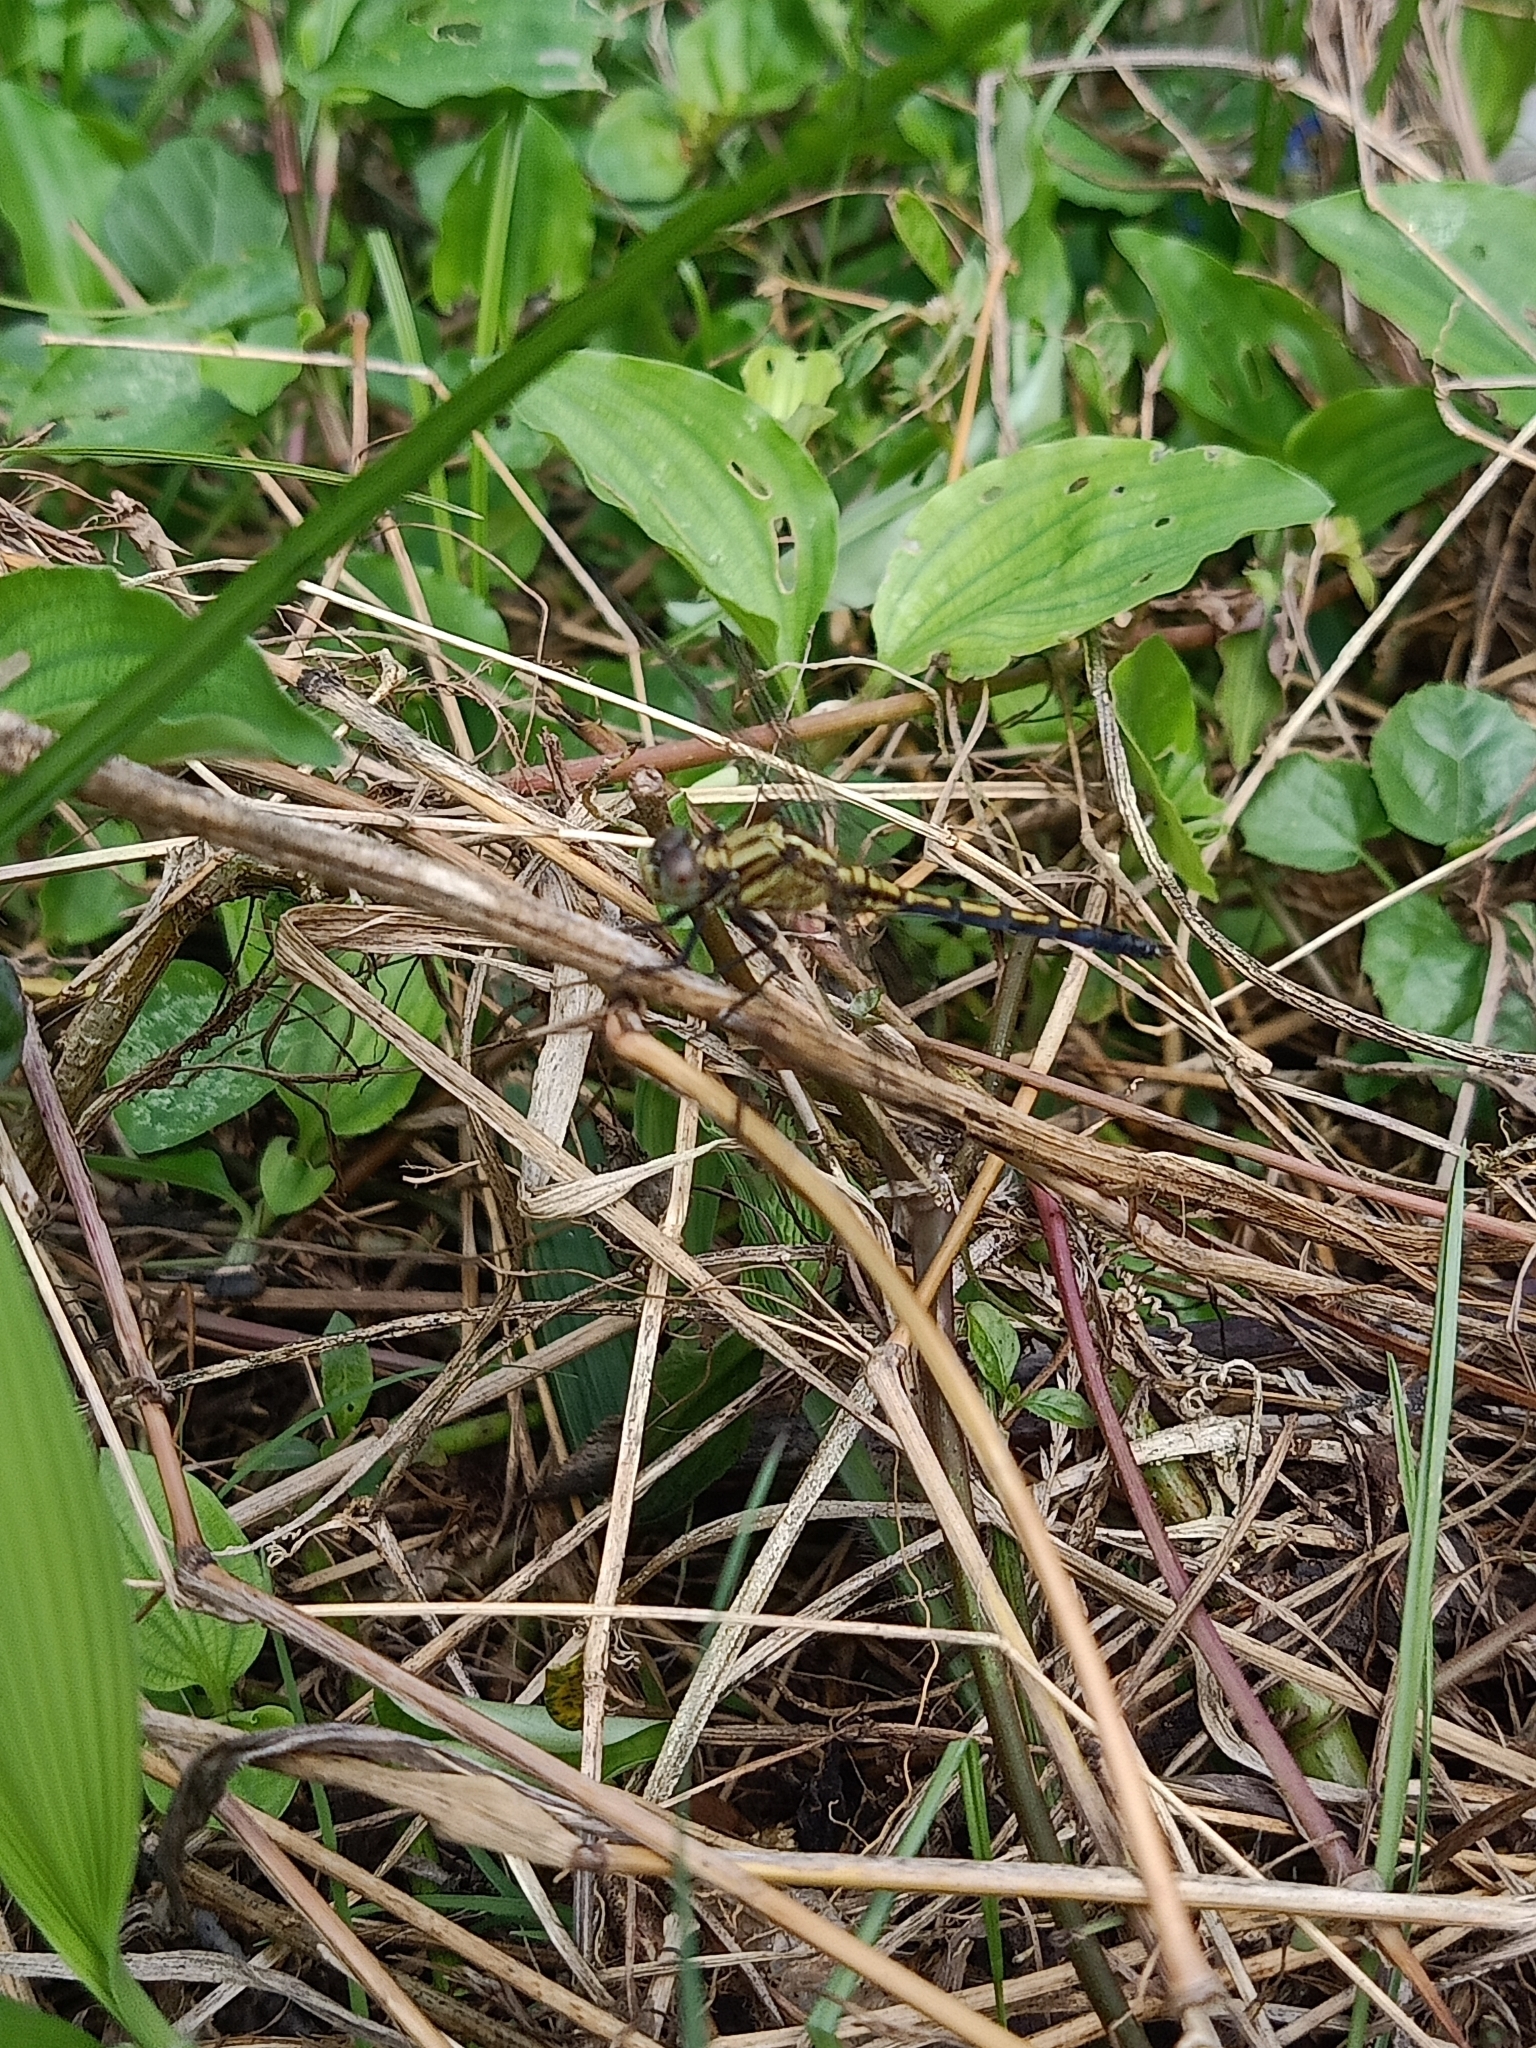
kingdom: Animalia
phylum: Arthropoda
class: Insecta
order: Odonata
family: Libellulidae
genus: Orthetrum
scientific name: Orthetrum luzonicum
